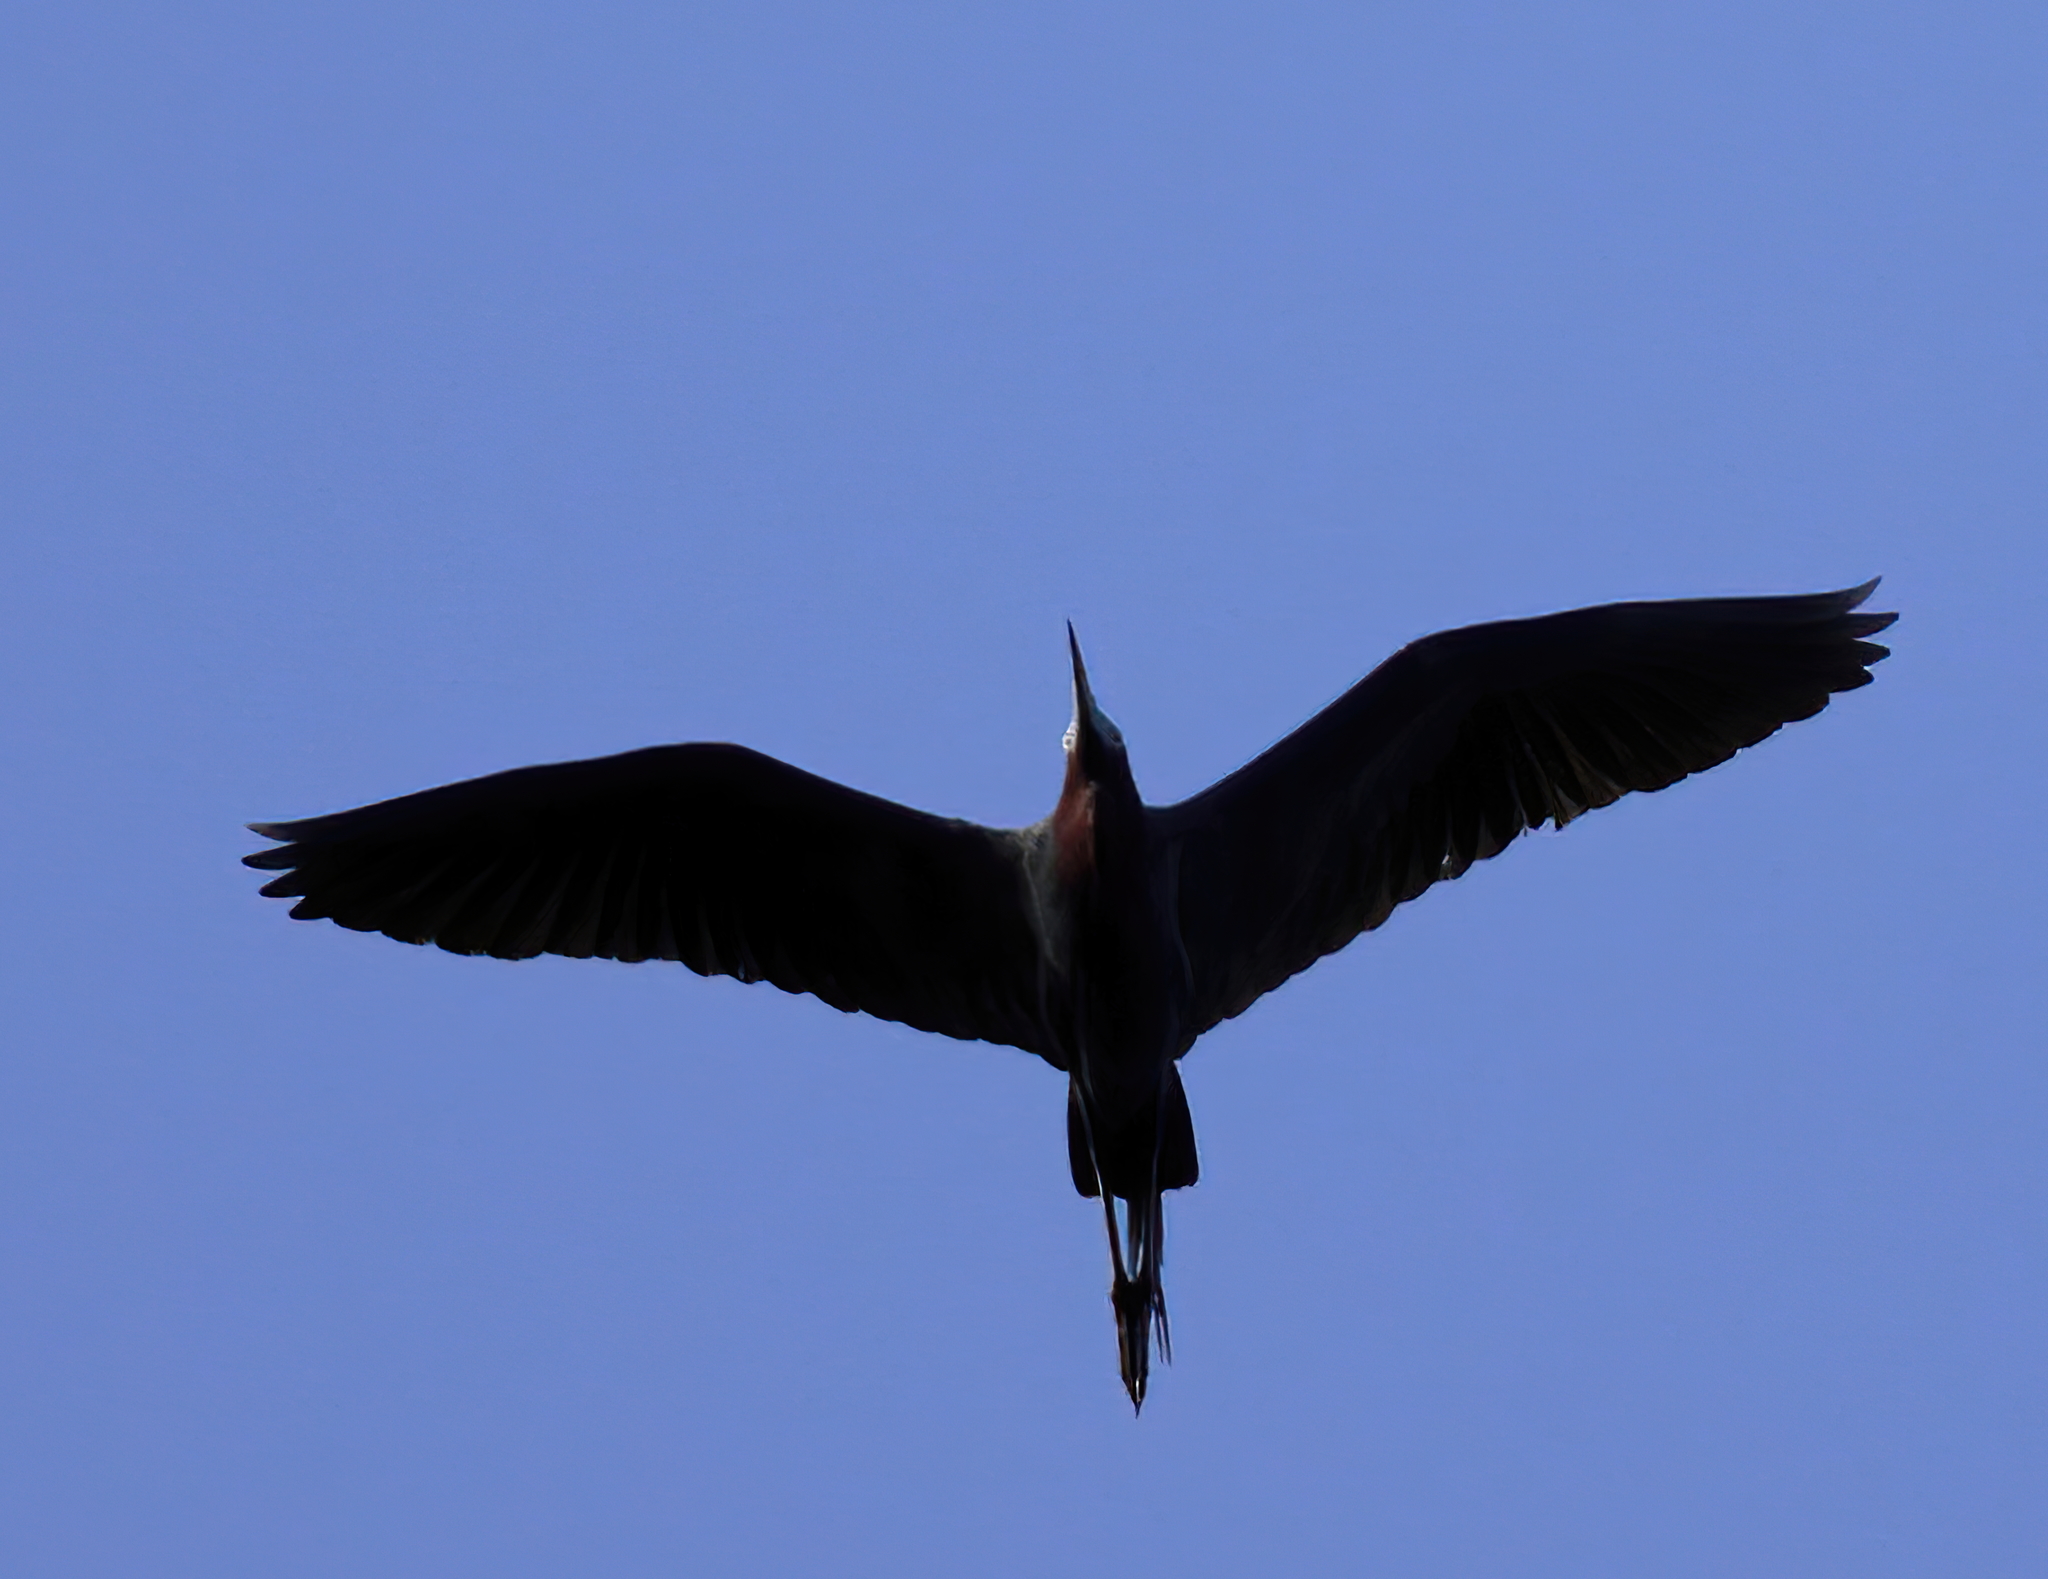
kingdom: Animalia
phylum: Chordata
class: Aves
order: Pelecaniformes
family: Ardeidae
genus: Egretta
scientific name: Egretta caerulea
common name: Little blue heron
